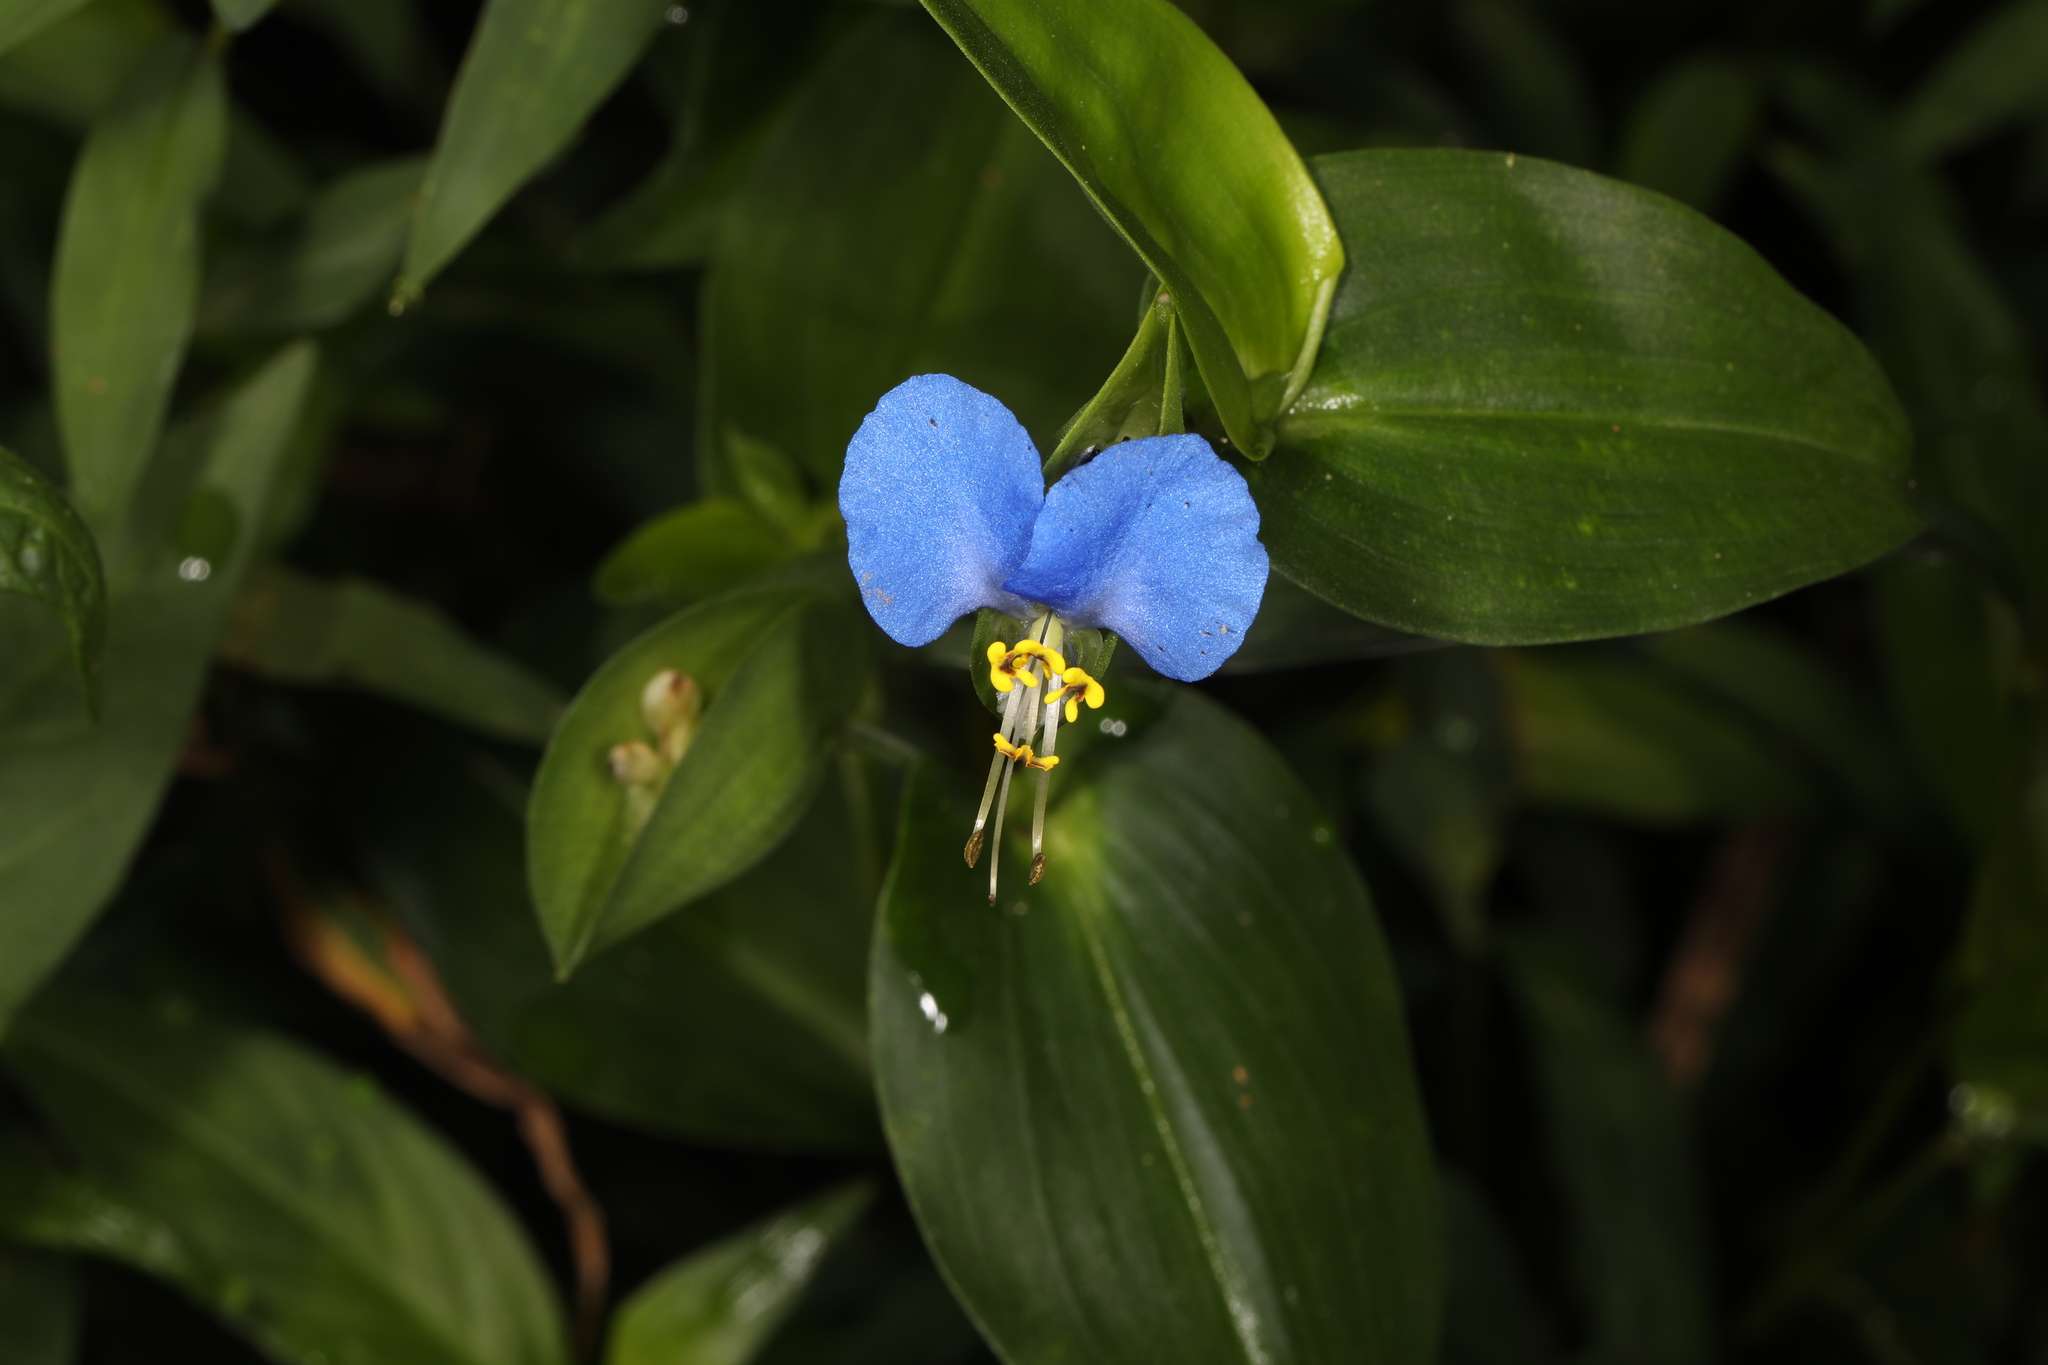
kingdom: Plantae
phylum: Tracheophyta
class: Liliopsida
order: Commelinales
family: Commelinaceae
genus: Commelina
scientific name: Commelina communis
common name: Asiatic dayflower
